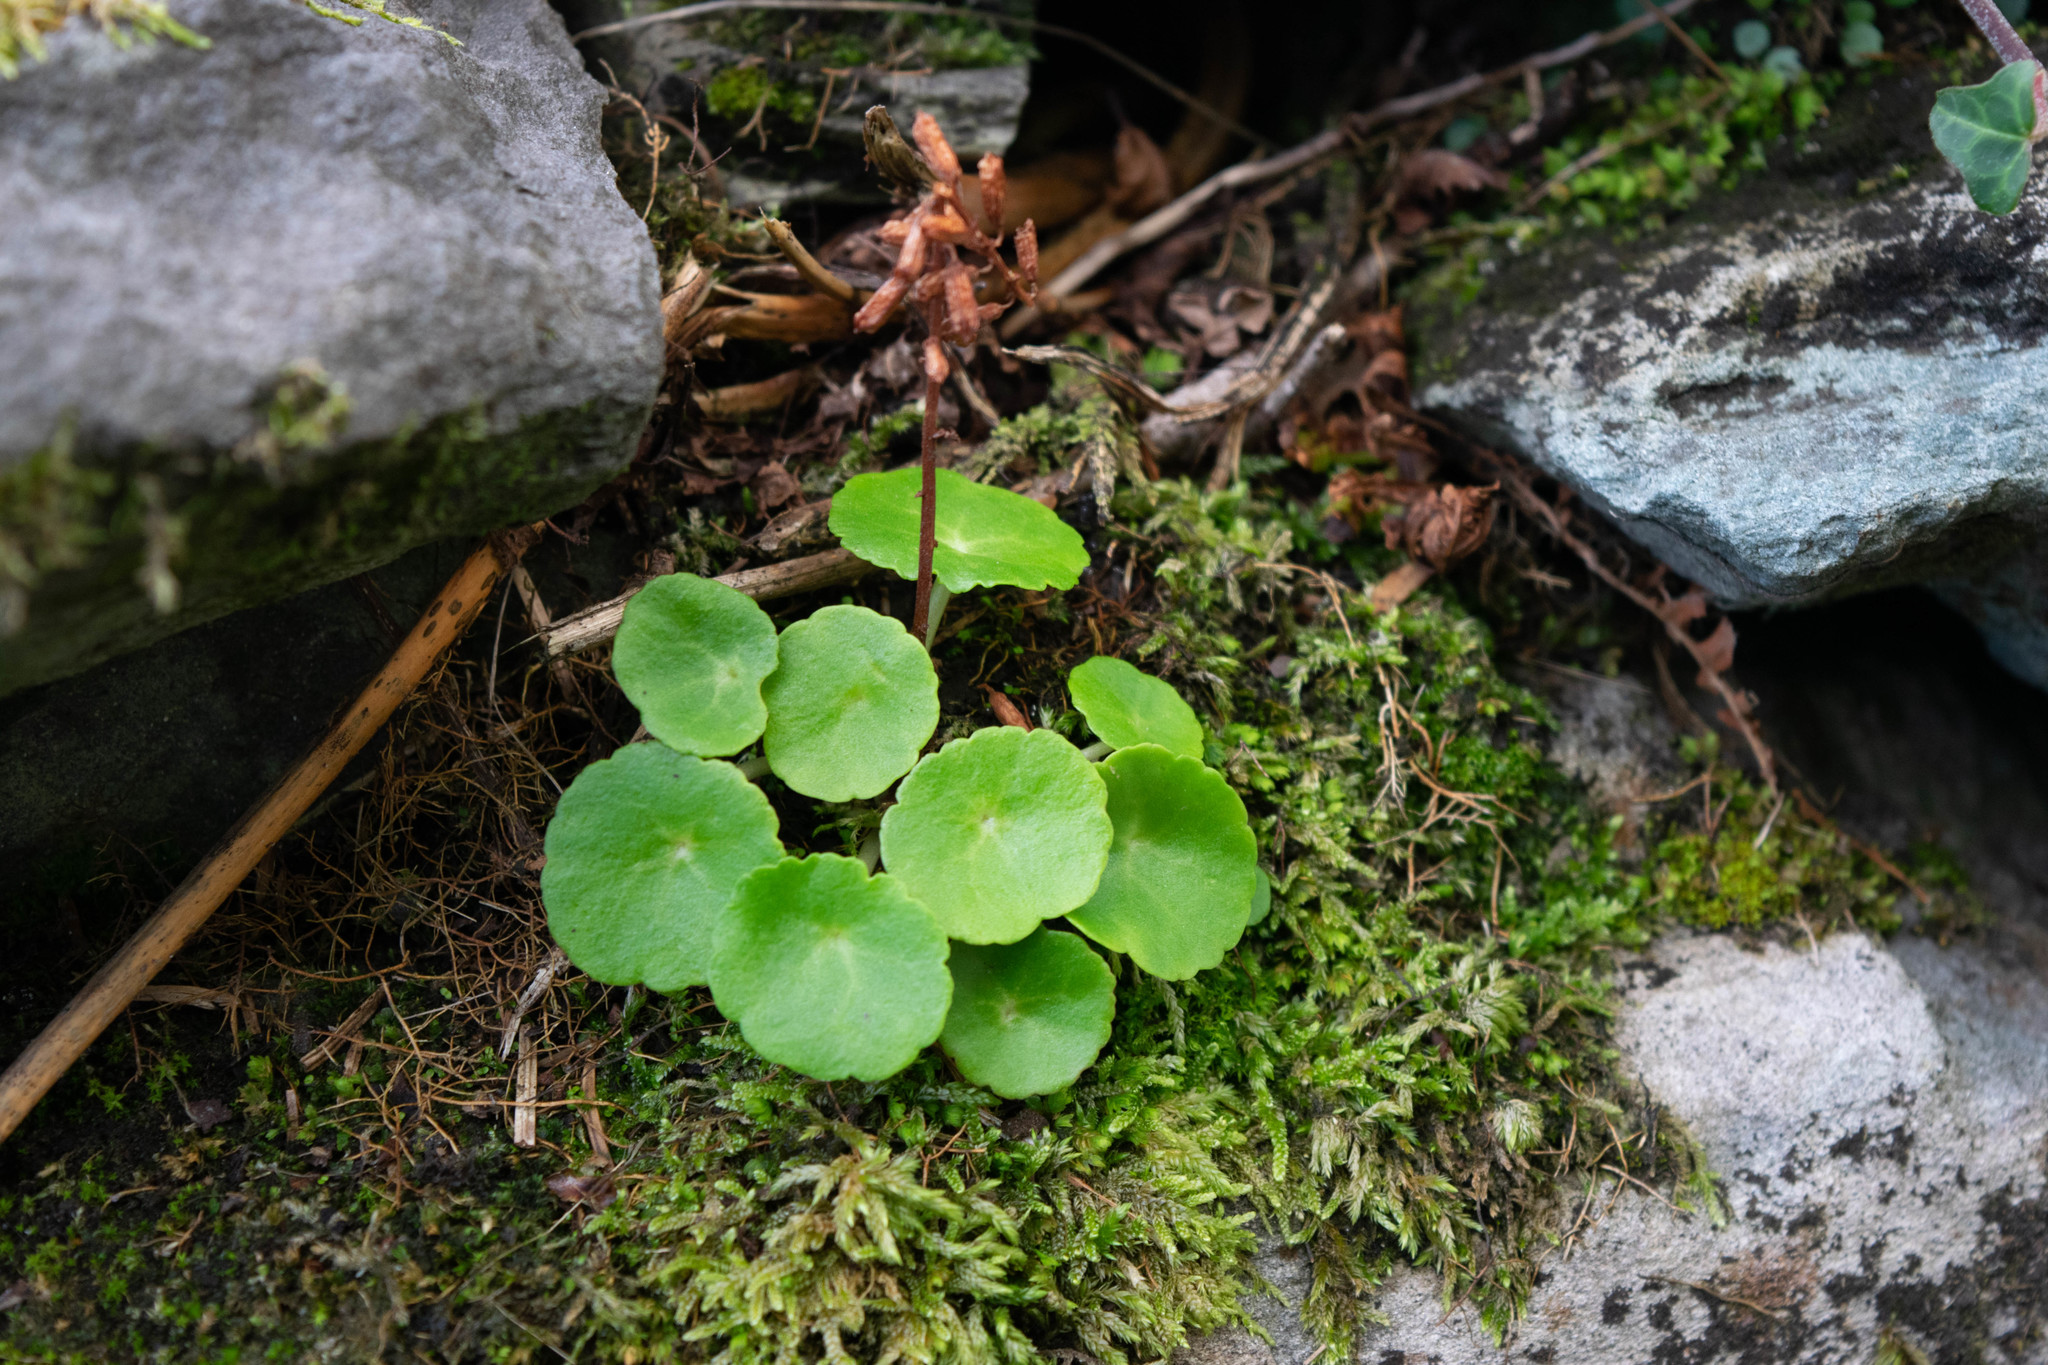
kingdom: Plantae
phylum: Tracheophyta
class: Magnoliopsida
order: Saxifragales
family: Crassulaceae
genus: Umbilicus
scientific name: Umbilicus rupestris
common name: Navelwort
